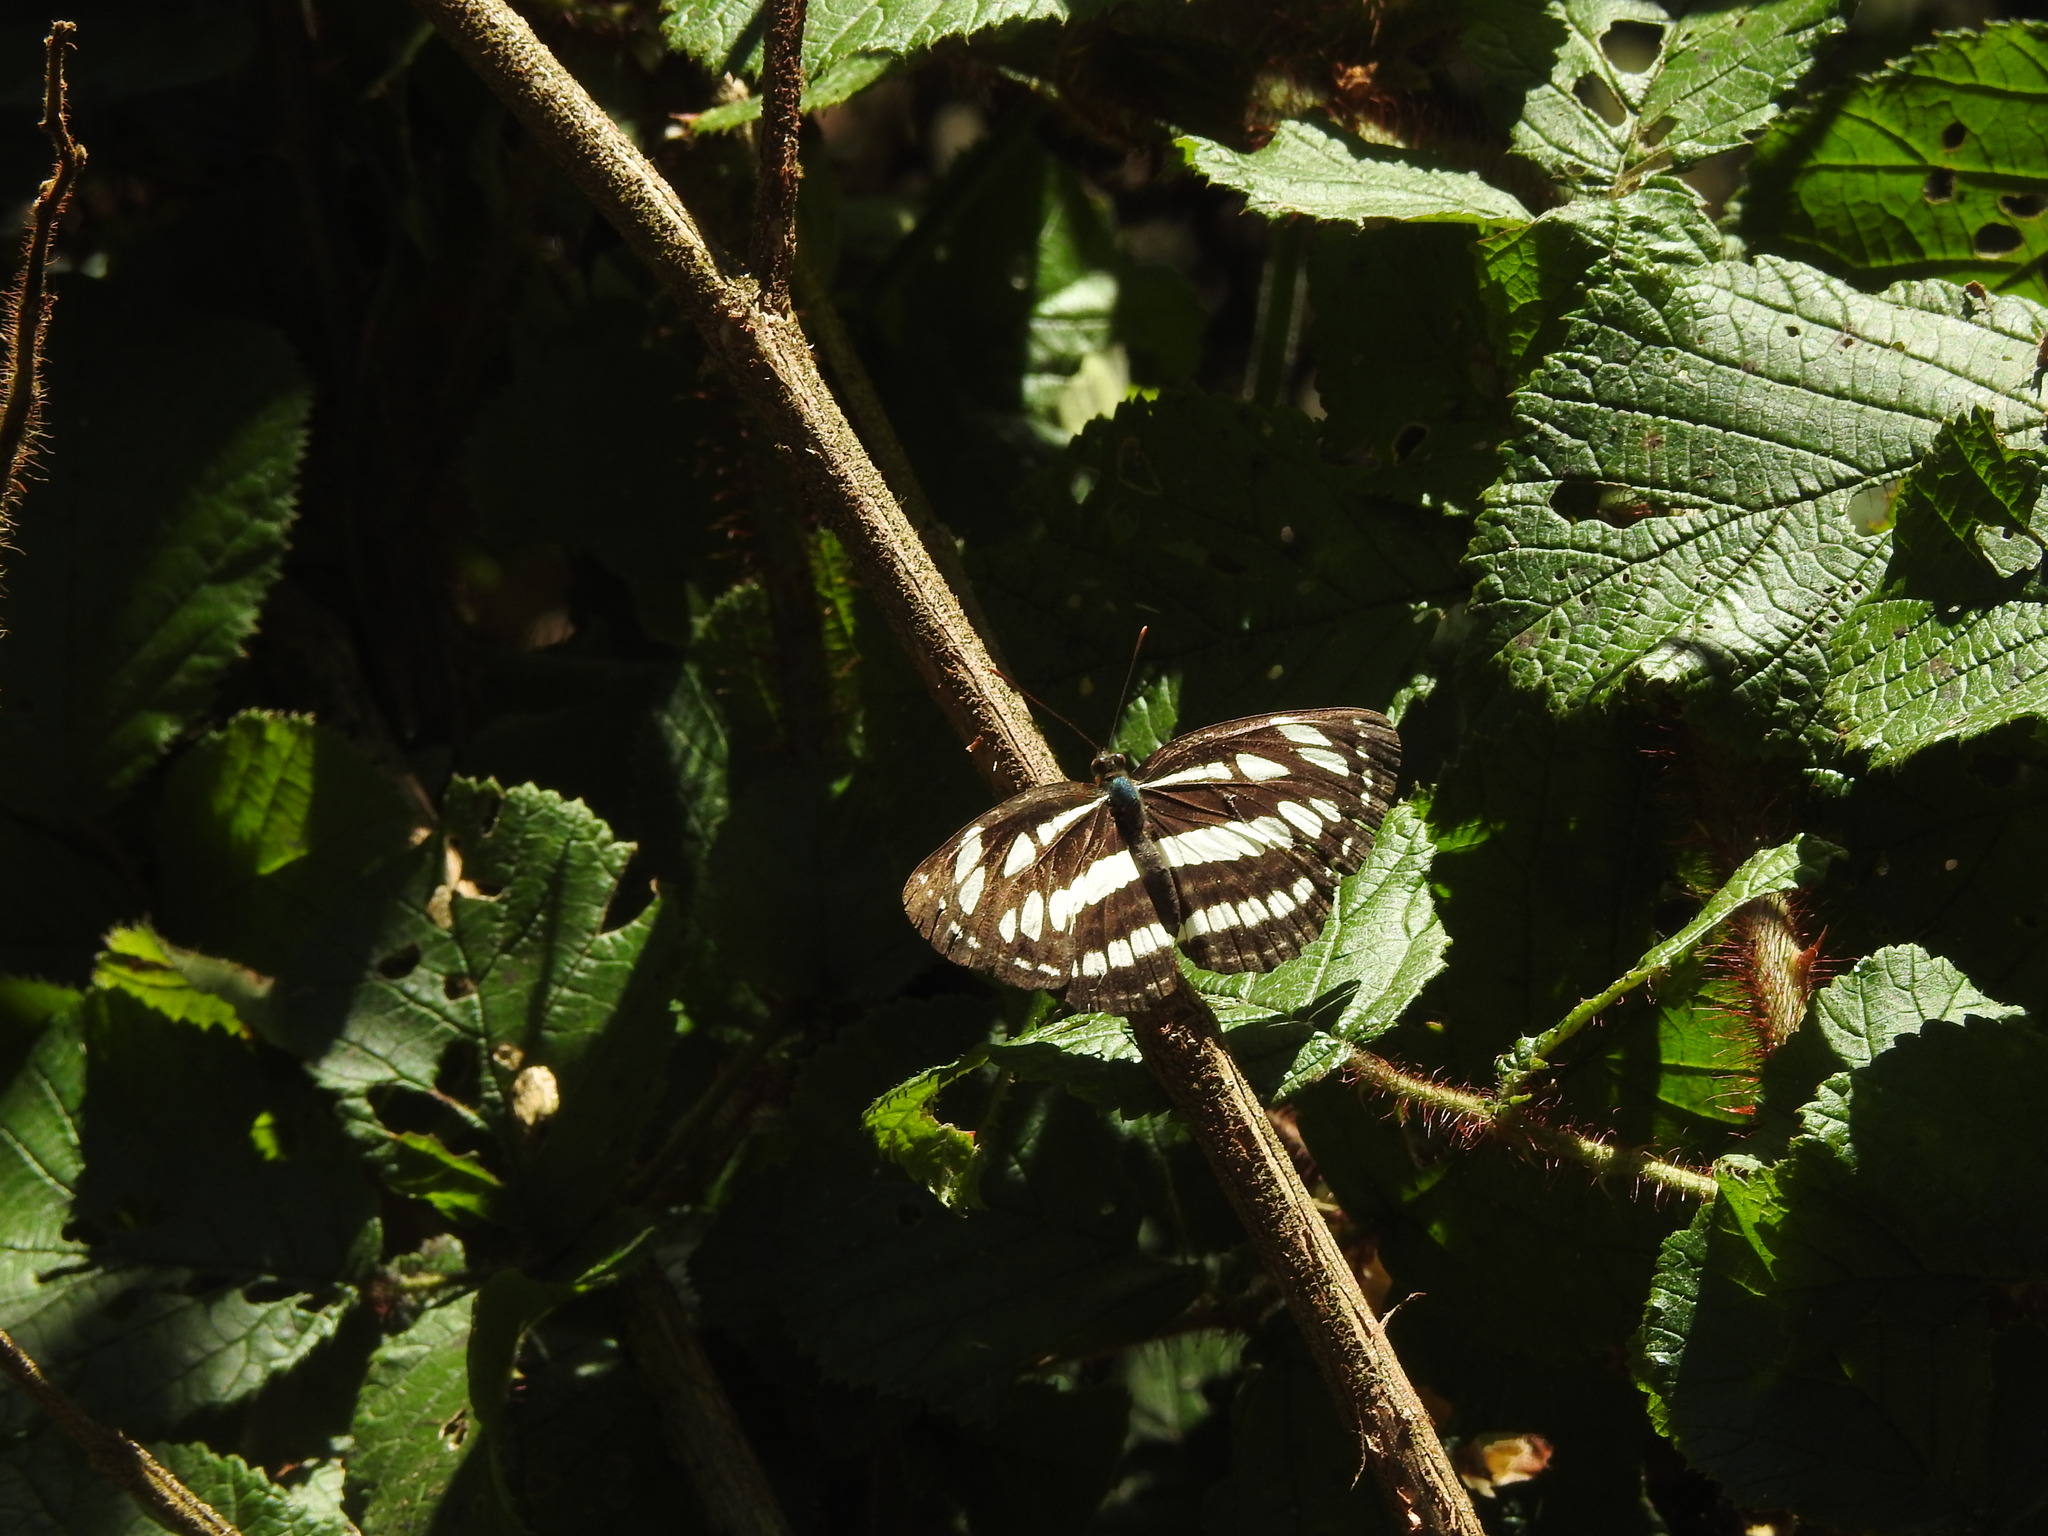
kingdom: Animalia
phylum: Arthropoda
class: Insecta
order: Lepidoptera
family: Nymphalidae
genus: Neptis
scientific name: Neptis hylas
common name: Common sailer
